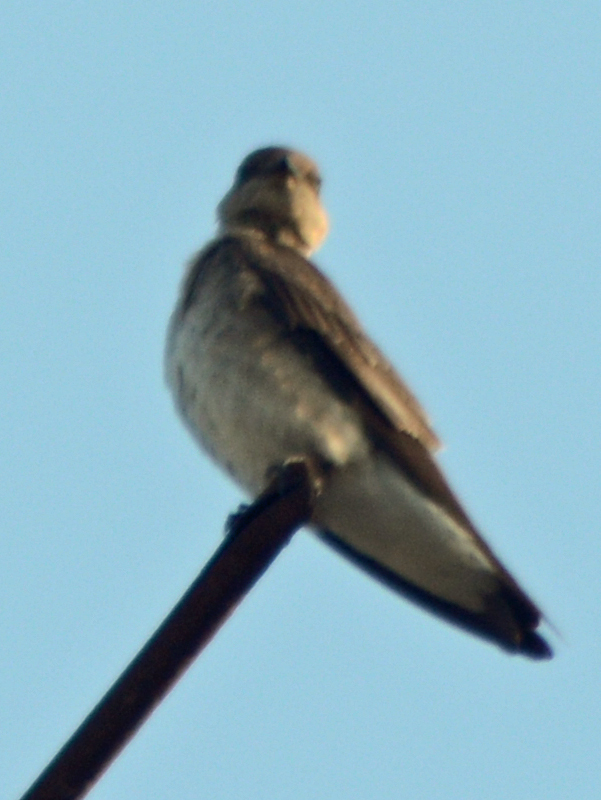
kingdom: Animalia
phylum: Chordata
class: Aves
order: Passeriformes
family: Hirundinidae
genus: Stelgidopteryx
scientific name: Stelgidopteryx serripennis
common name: Northern rough-winged swallow
